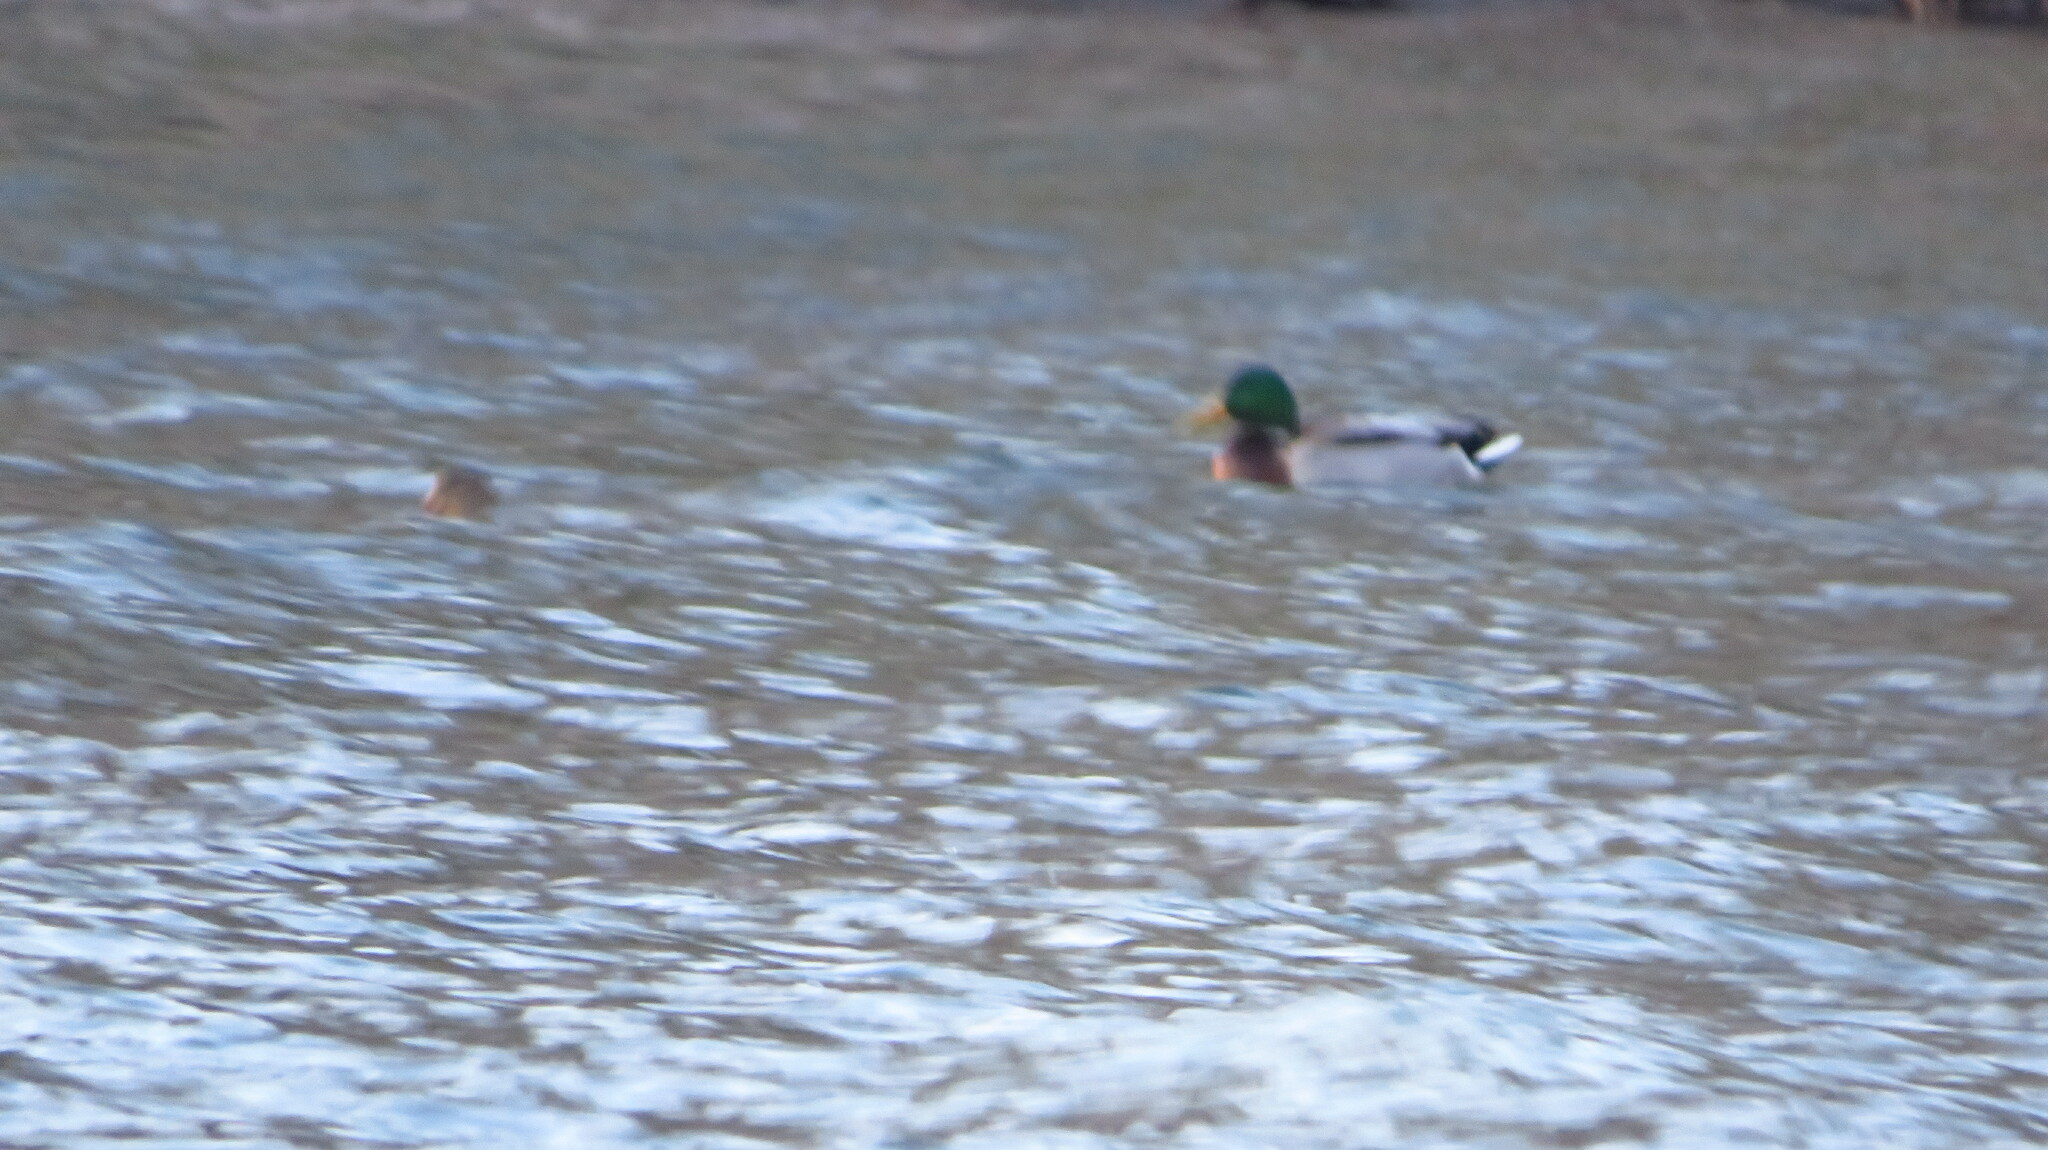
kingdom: Animalia
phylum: Chordata
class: Aves
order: Anseriformes
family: Anatidae
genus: Anas
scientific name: Anas platyrhynchos
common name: Mallard
